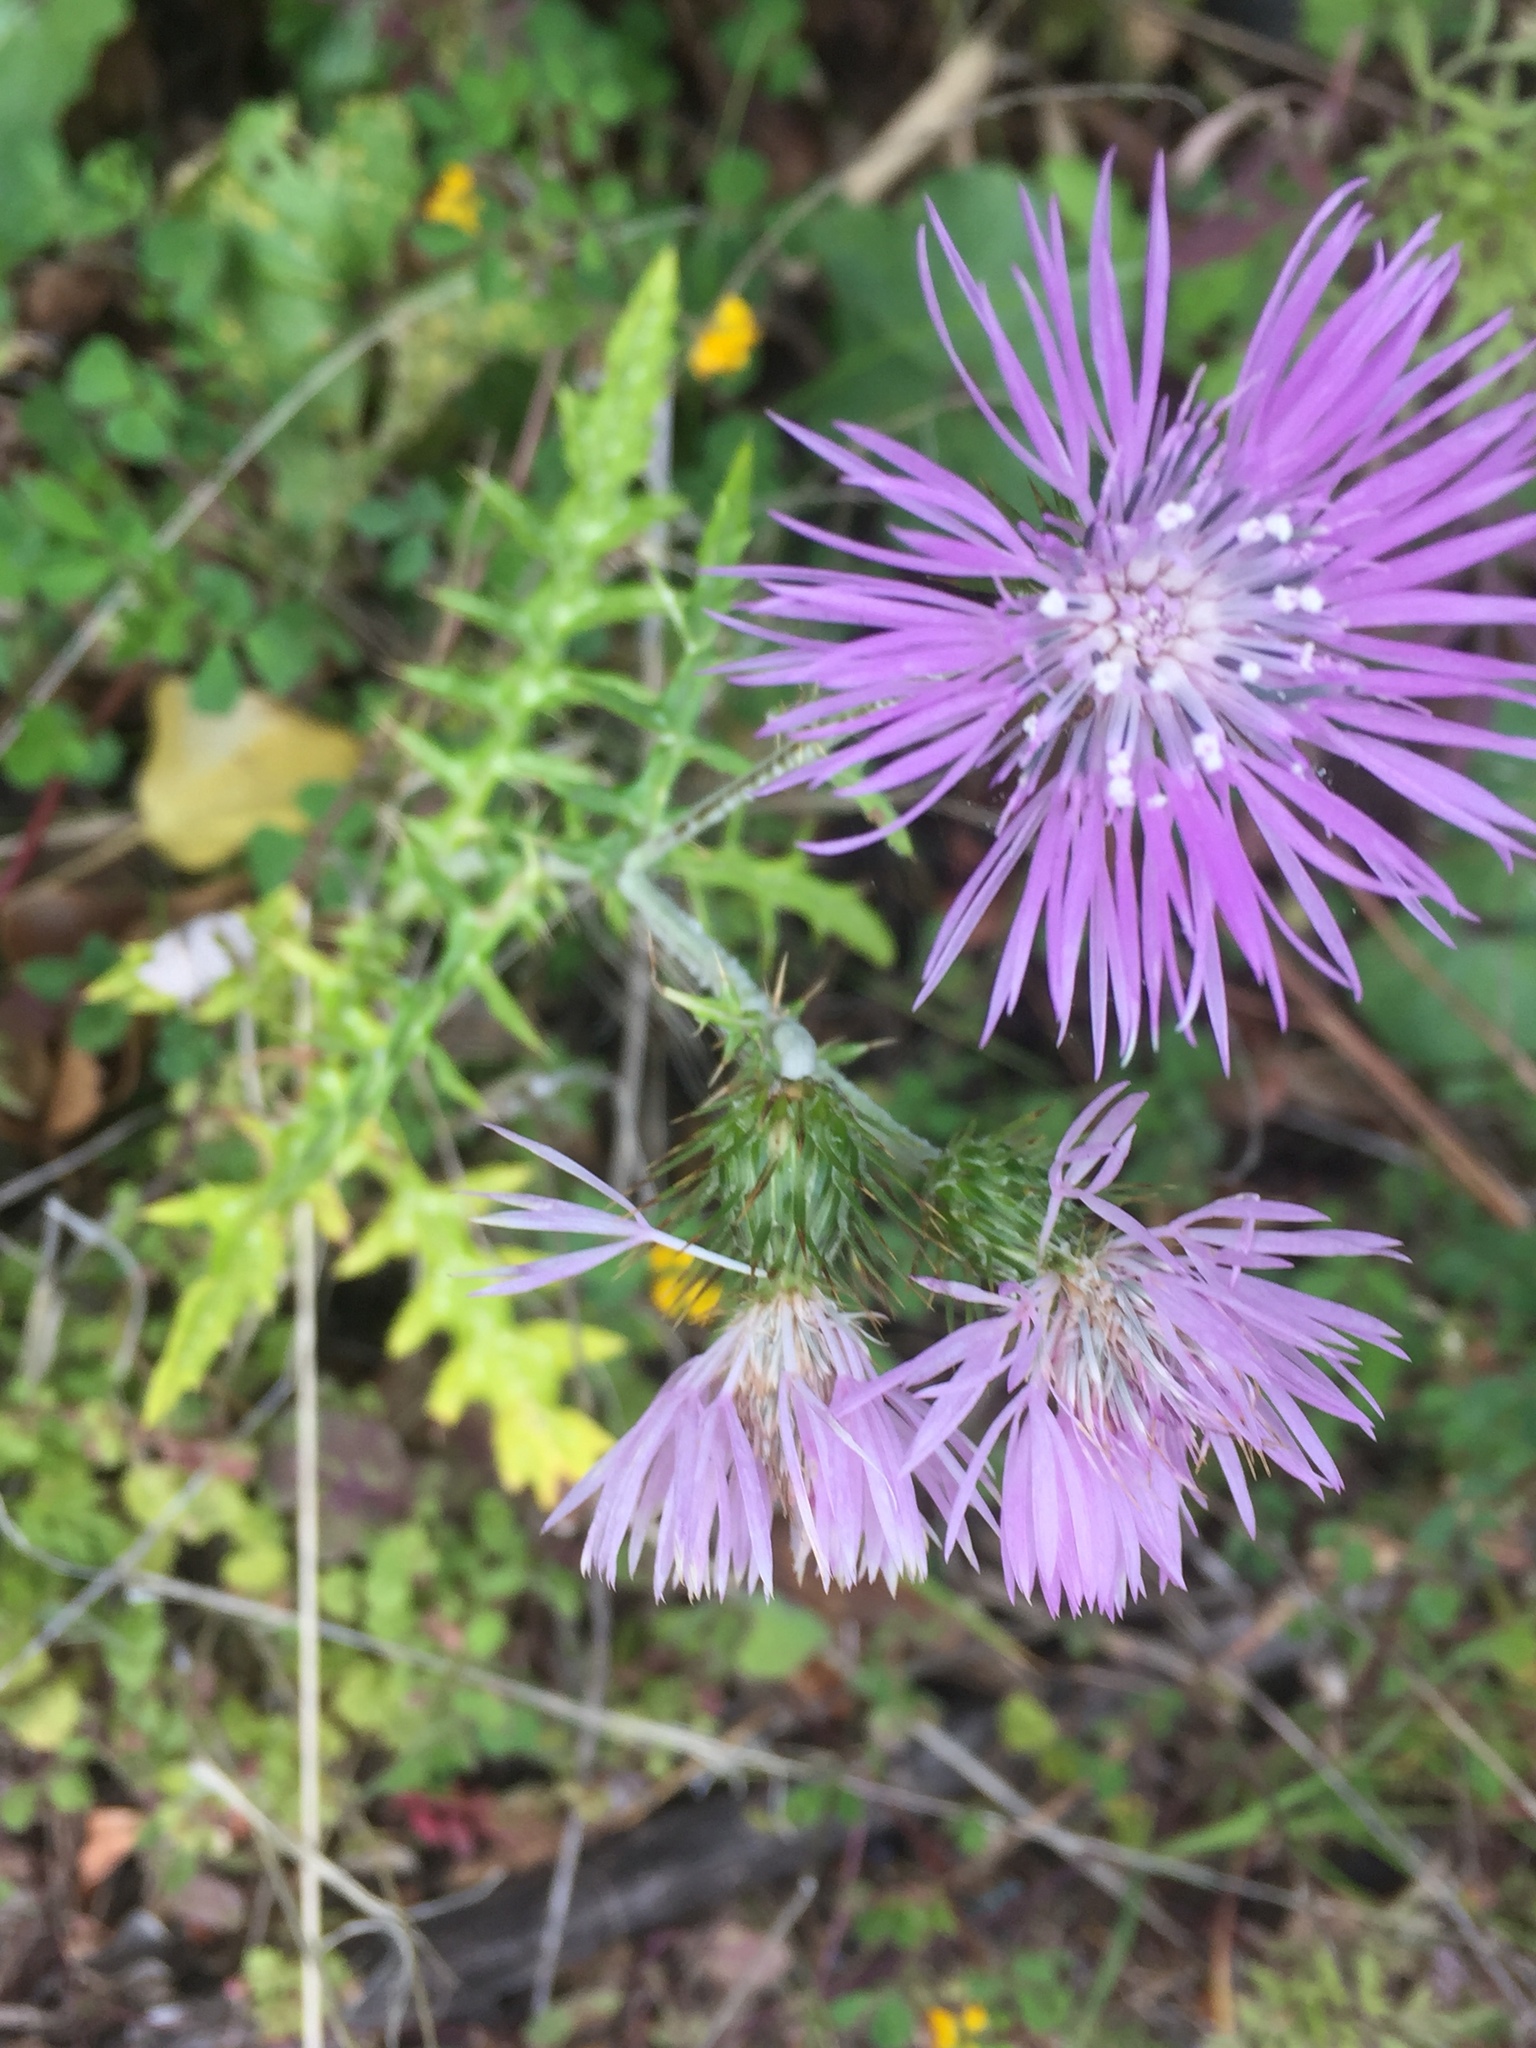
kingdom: Plantae
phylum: Tracheophyta
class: Magnoliopsida
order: Asterales
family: Asteraceae
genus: Galactites
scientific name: Galactites tomentosa
